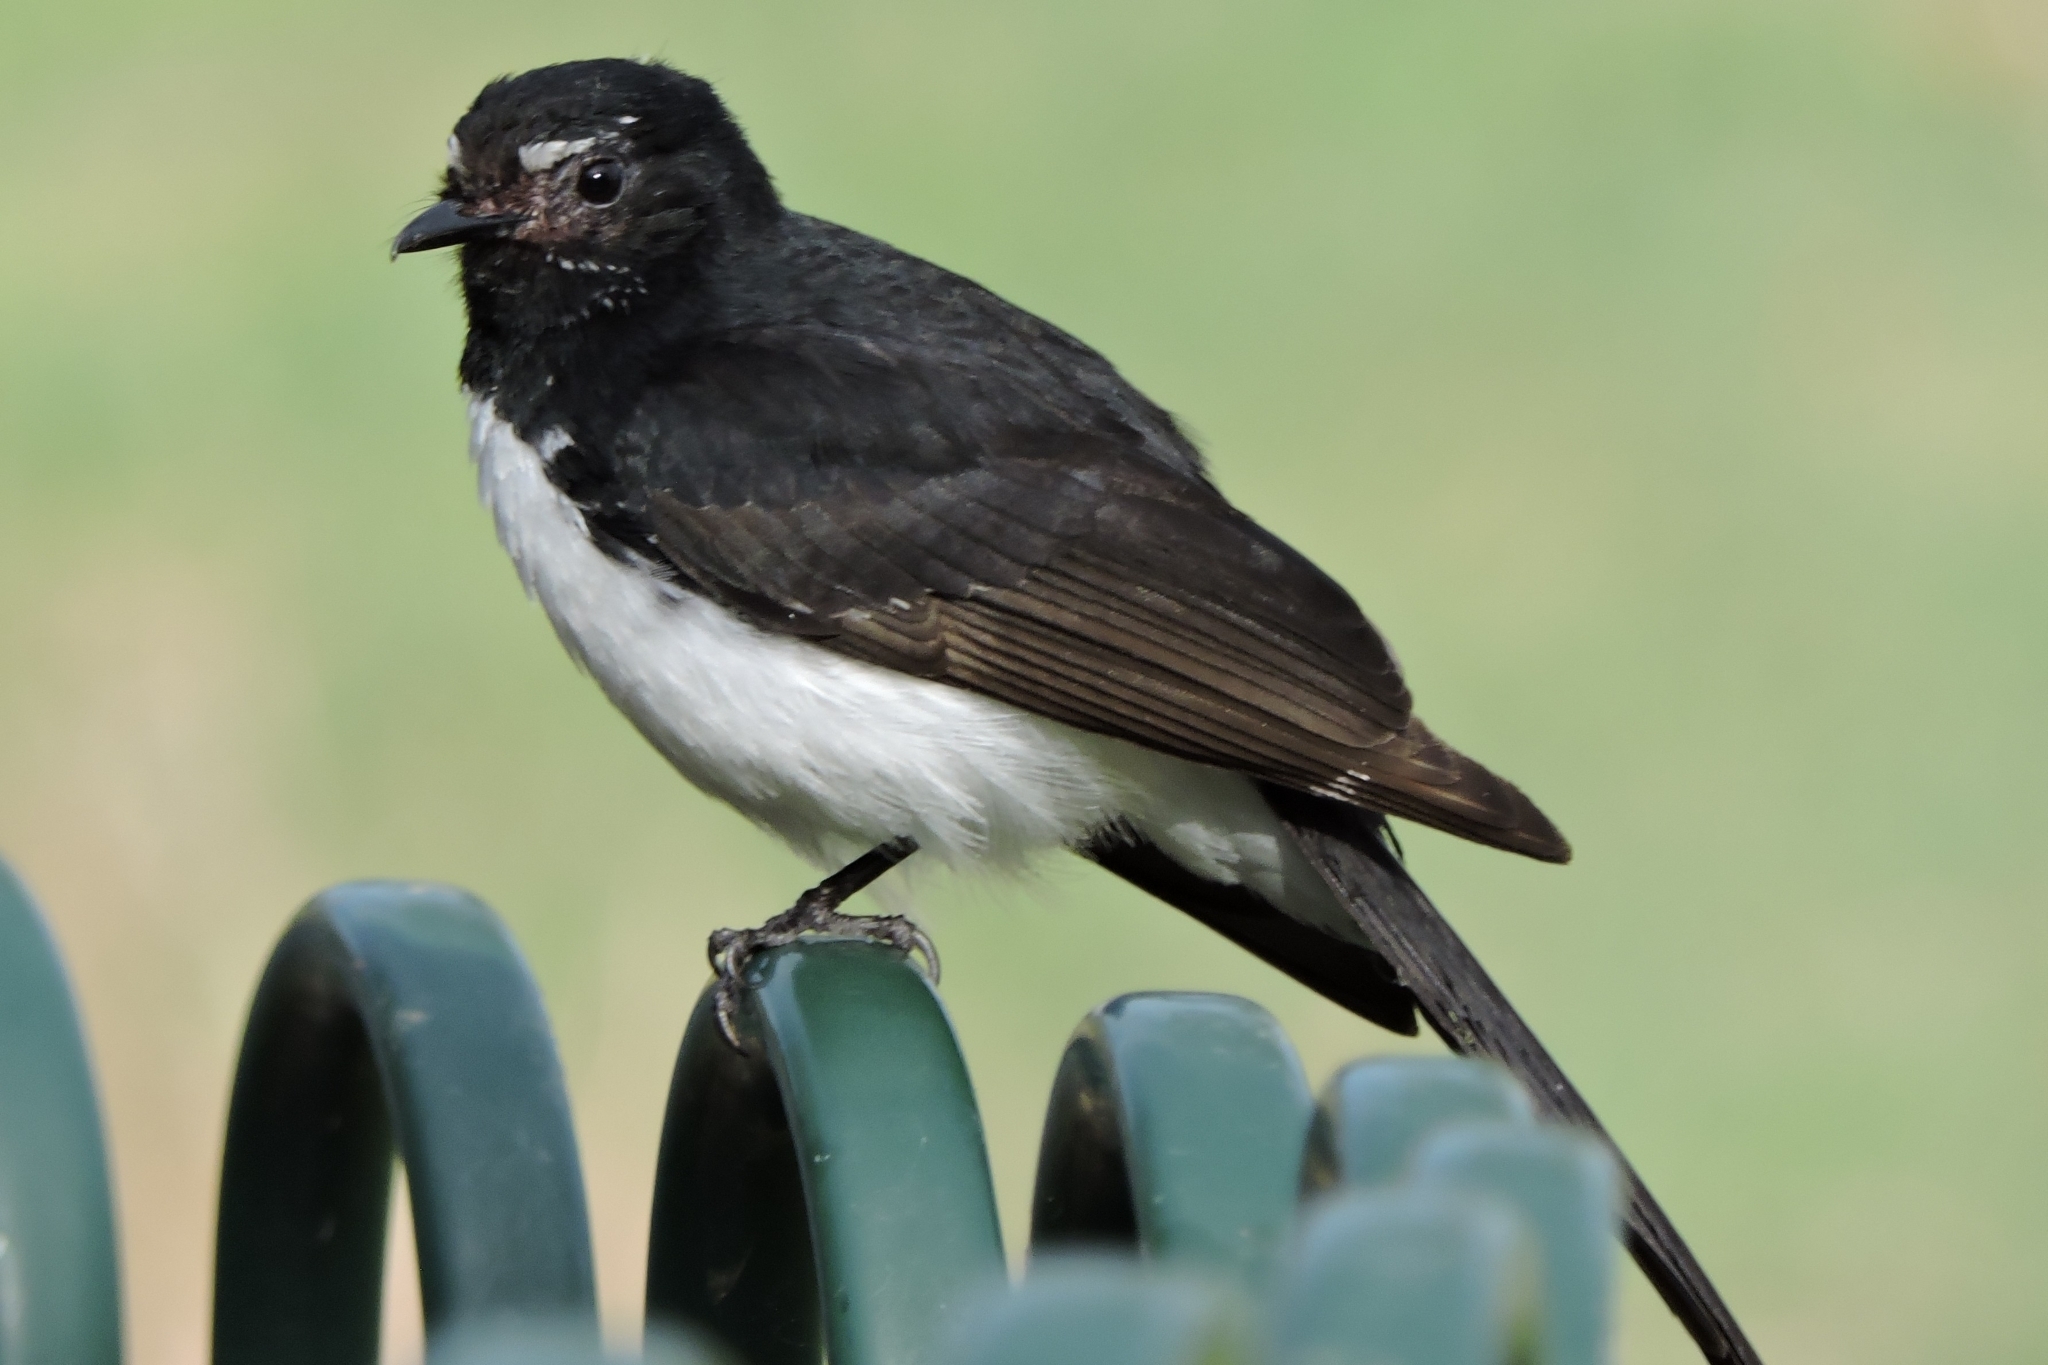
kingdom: Animalia
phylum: Chordata
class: Aves
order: Passeriformes
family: Rhipiduridae
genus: Rhipidura
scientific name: Rhipidura leucophrys
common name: Willie wagtail
